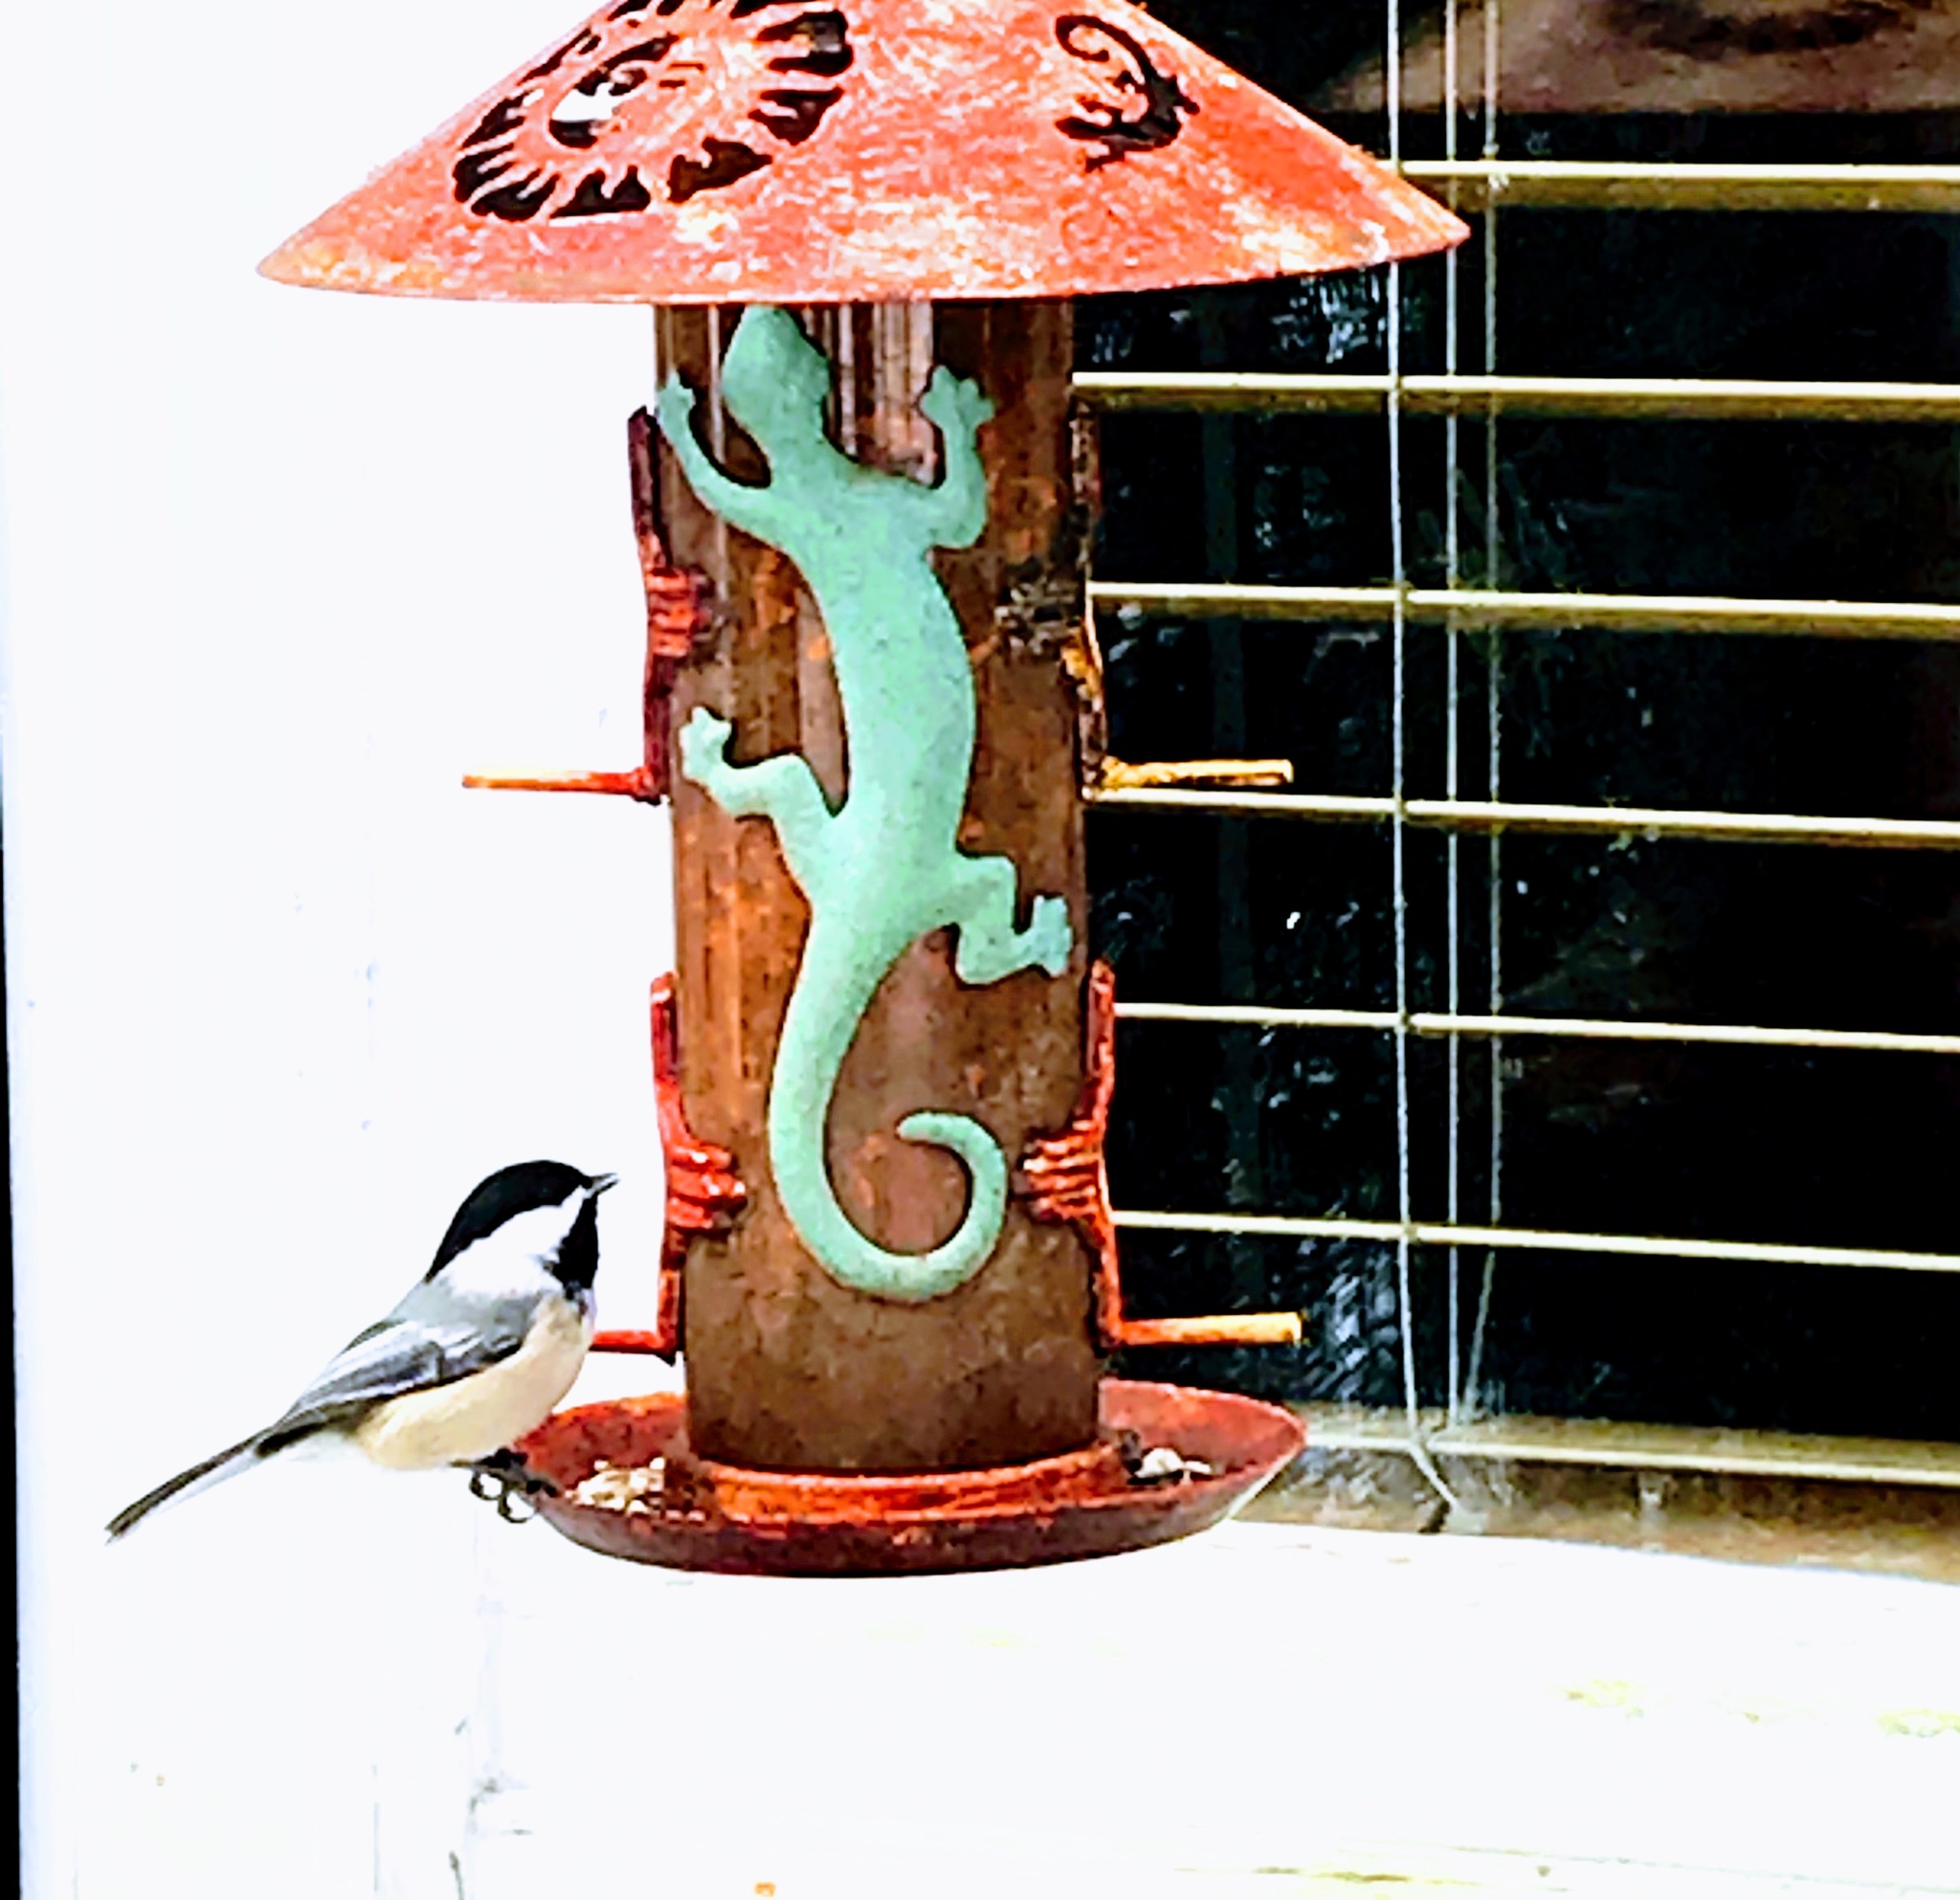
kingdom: Animalia
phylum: Chordata
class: Aves
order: Passeriformes
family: Paridae
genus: Poecile
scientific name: Poecile atricapillus
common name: Black-capped chickadee
